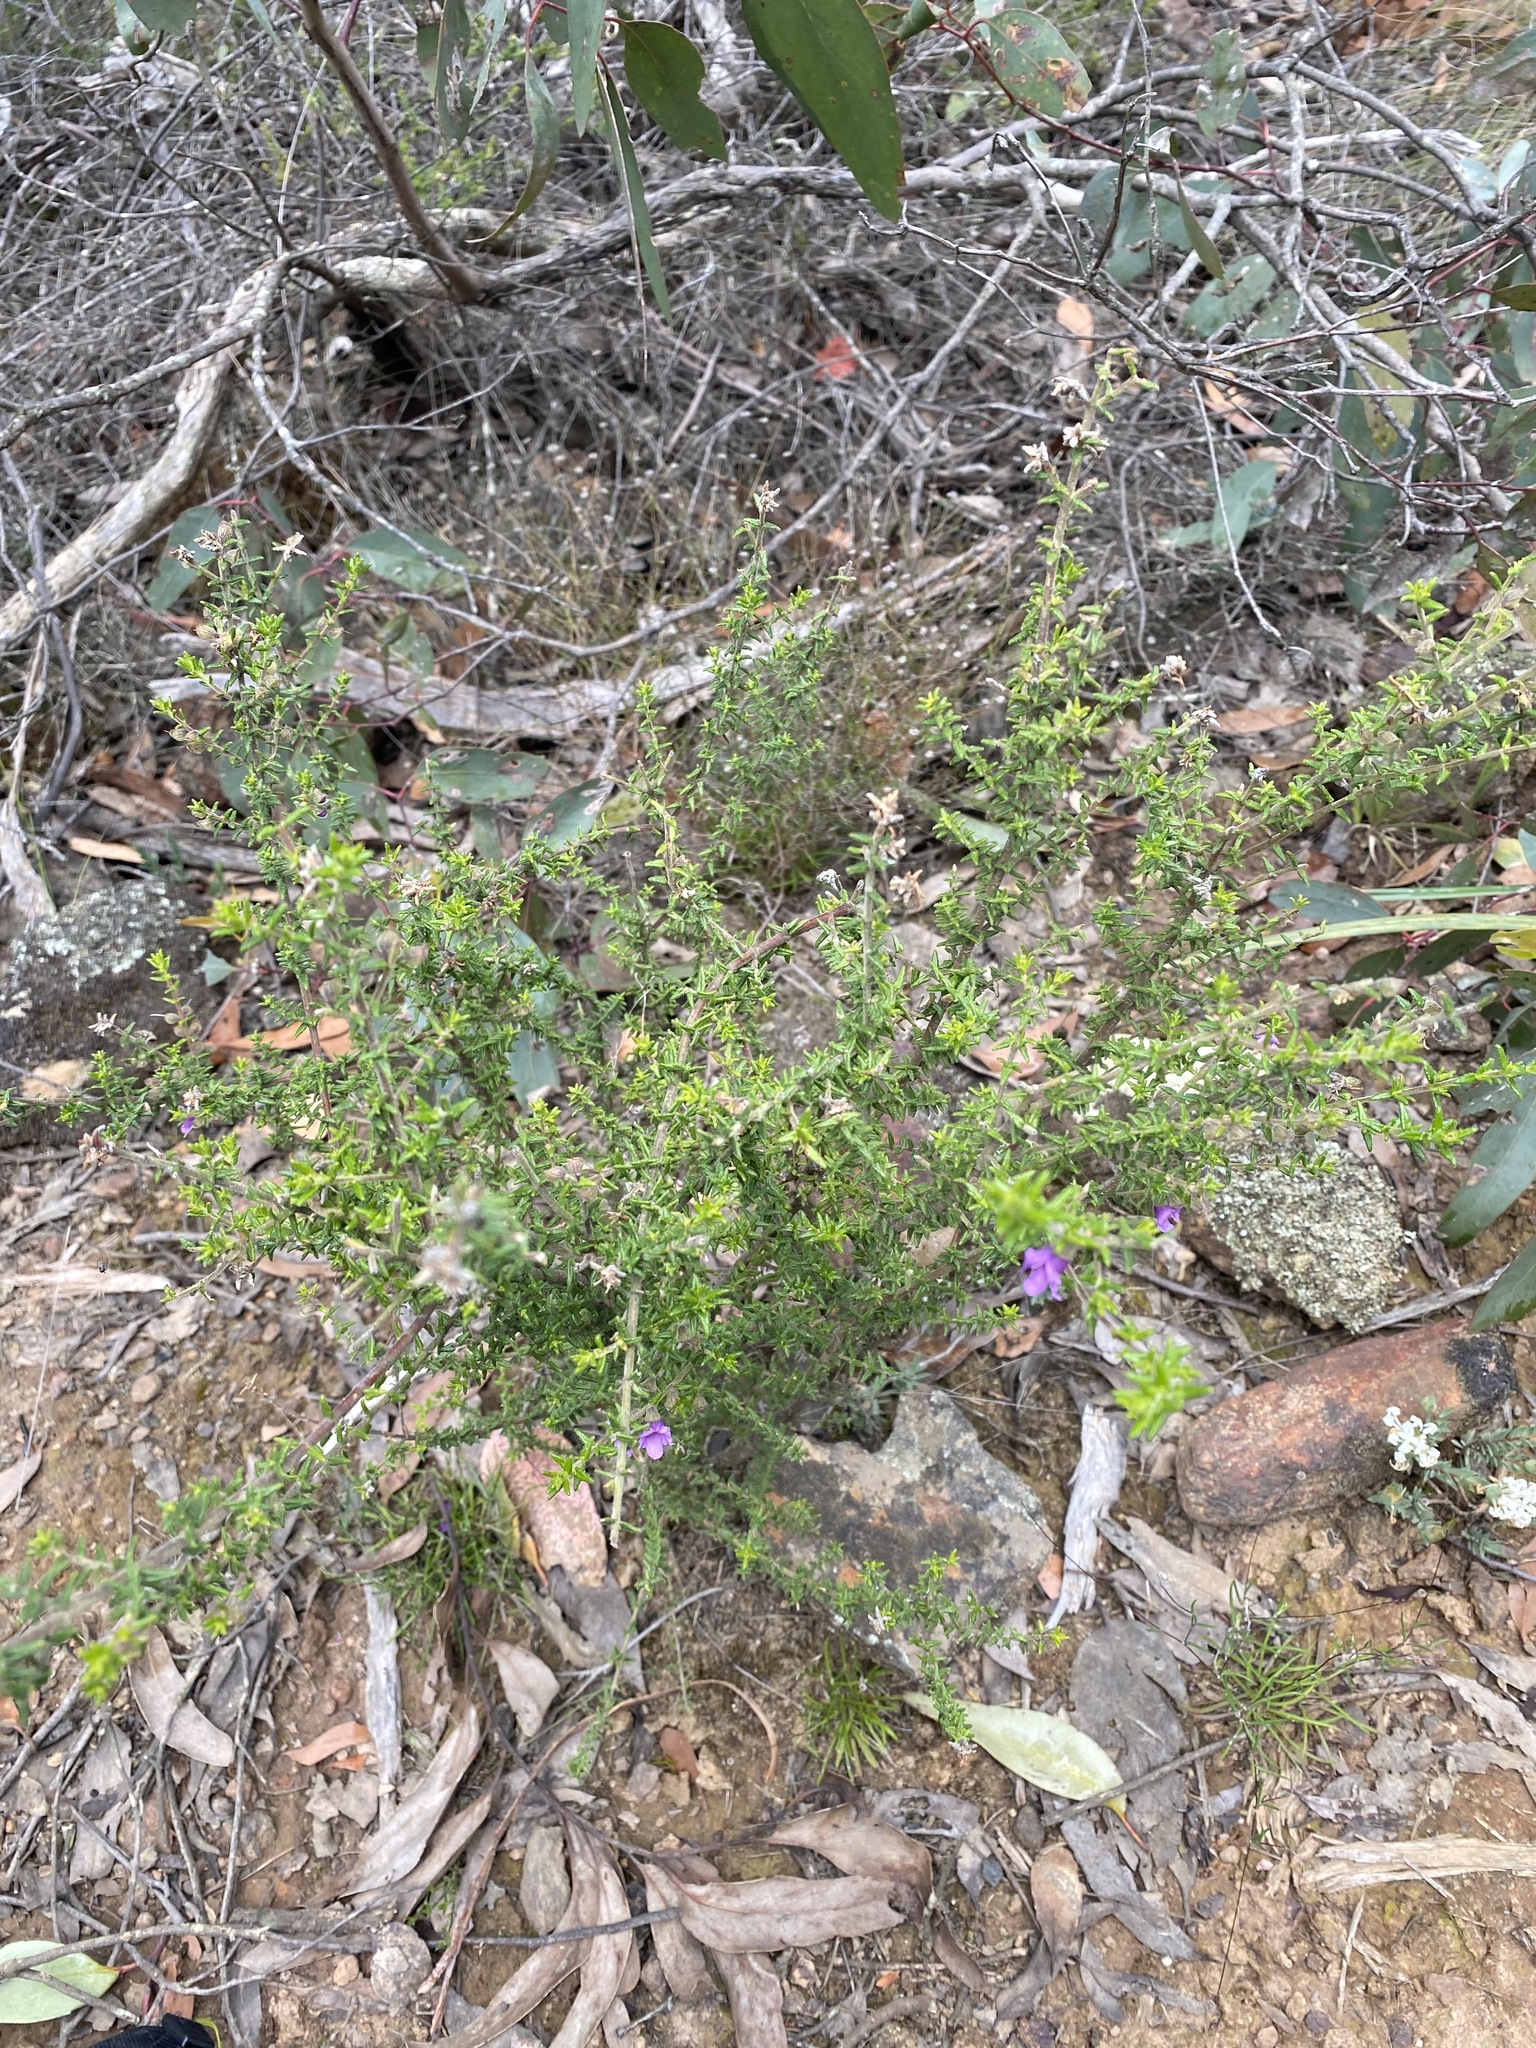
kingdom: Plantae
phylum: Tracheophyta
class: Magnoliopsida
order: Lamiales
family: Lamiaceae
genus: Prostanthera
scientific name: Prostanthera decussata
